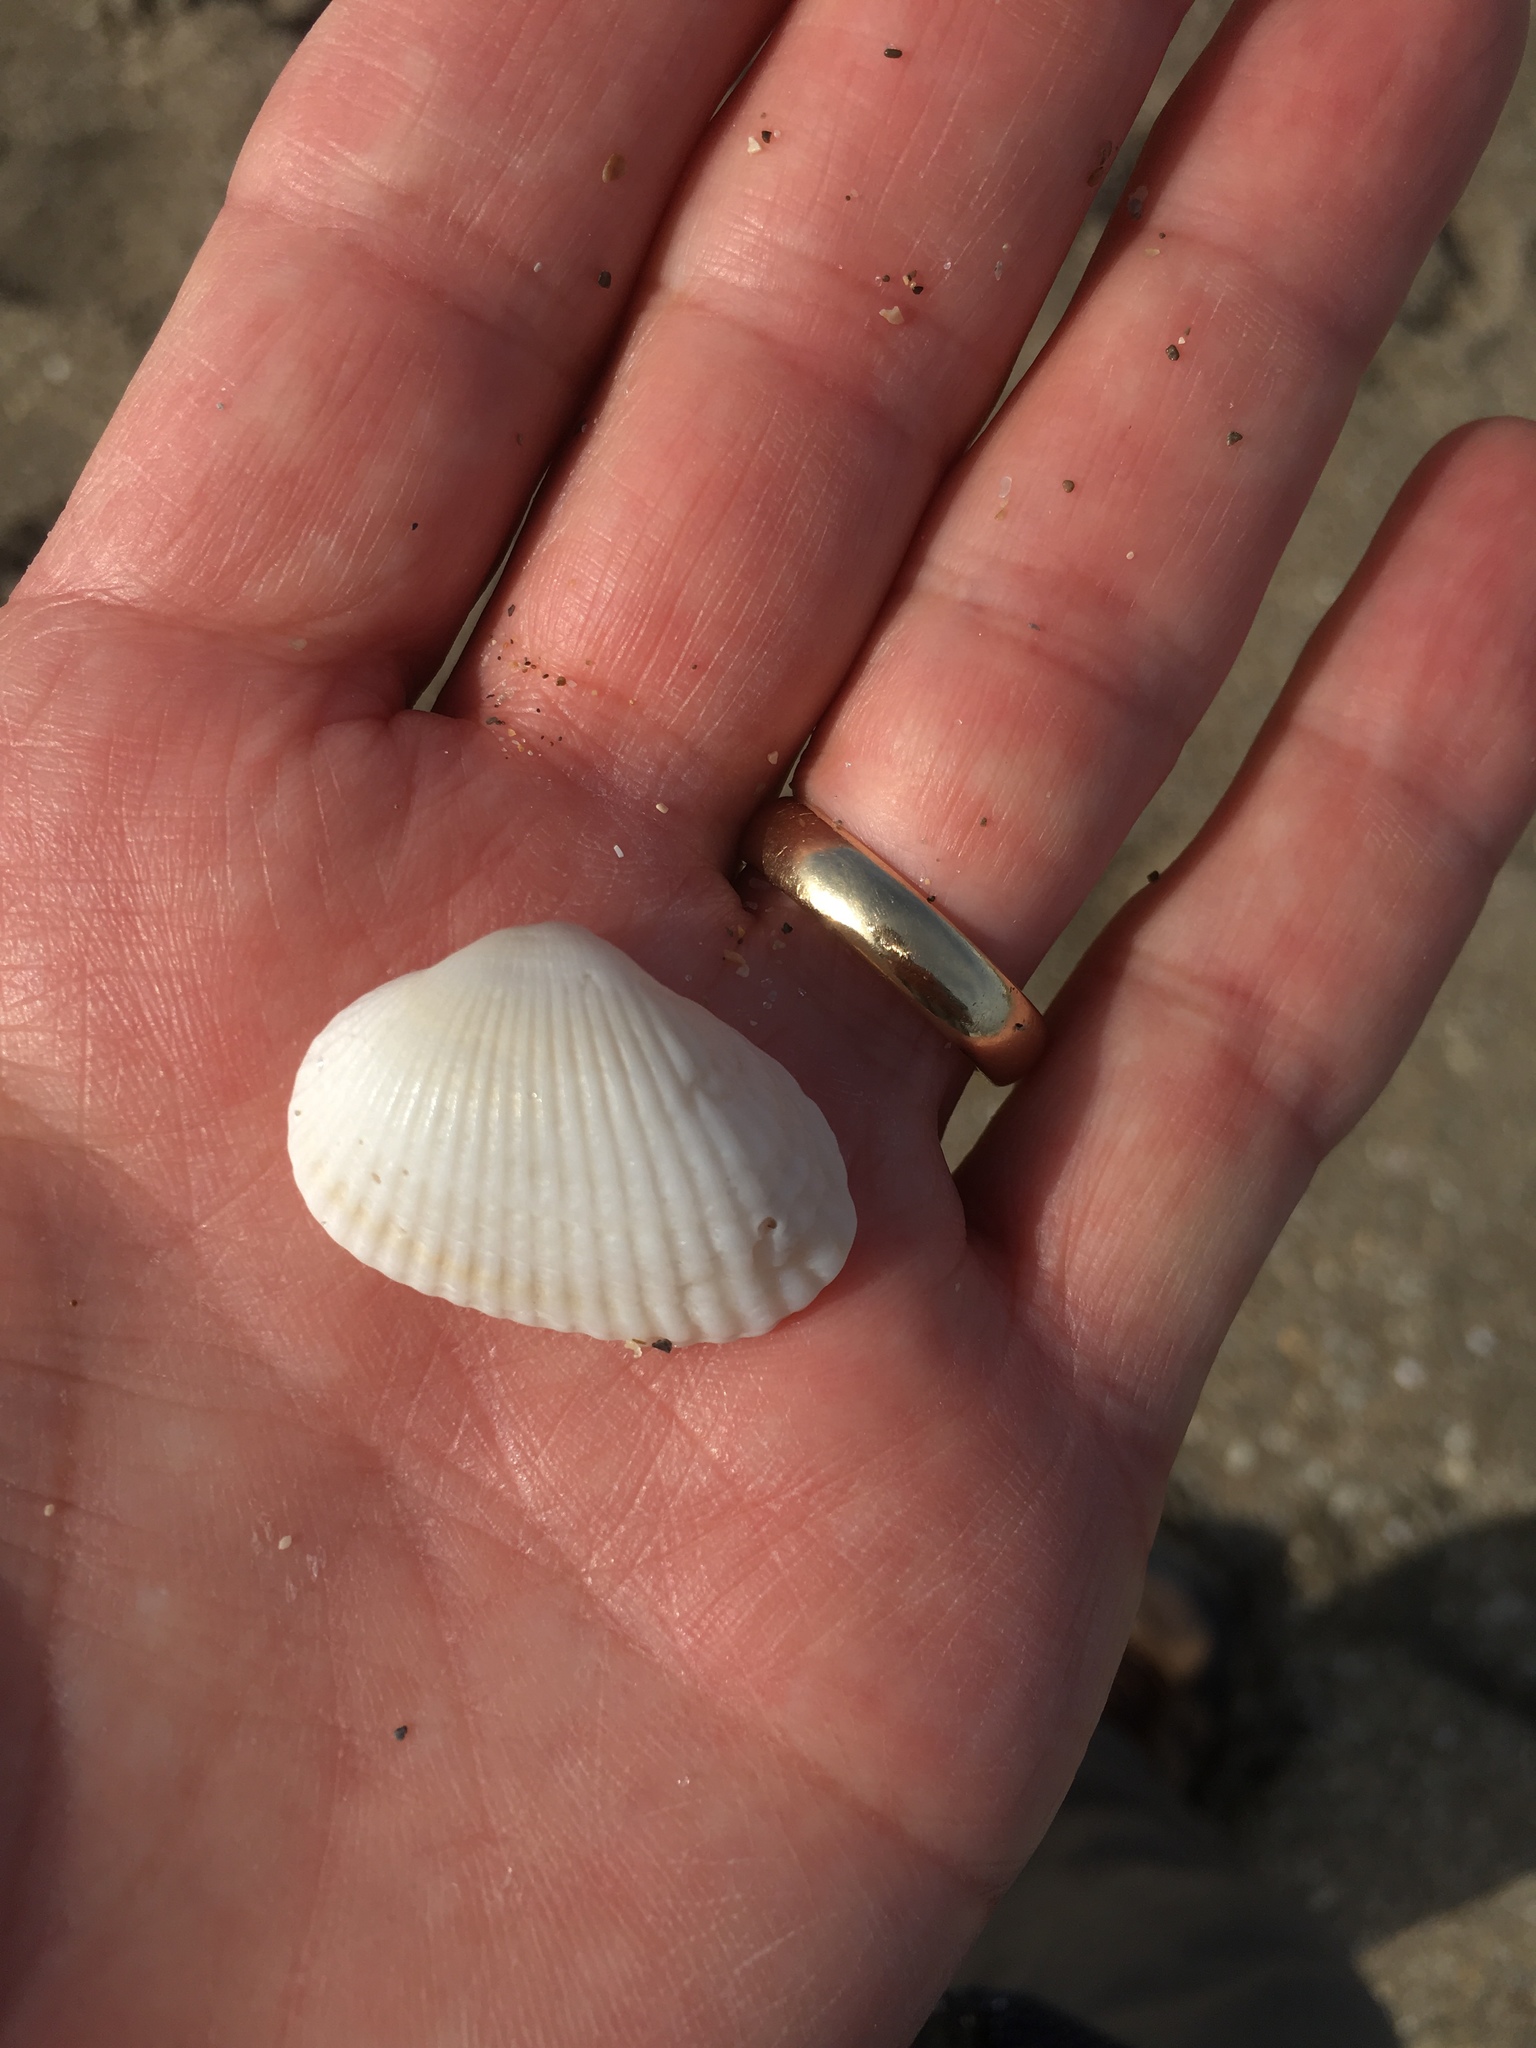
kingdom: Animalia
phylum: Mollusca
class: Bivalvia
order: Arcida
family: Arcidae
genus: Anadara
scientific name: Anadara transversa
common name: Transverse ark
